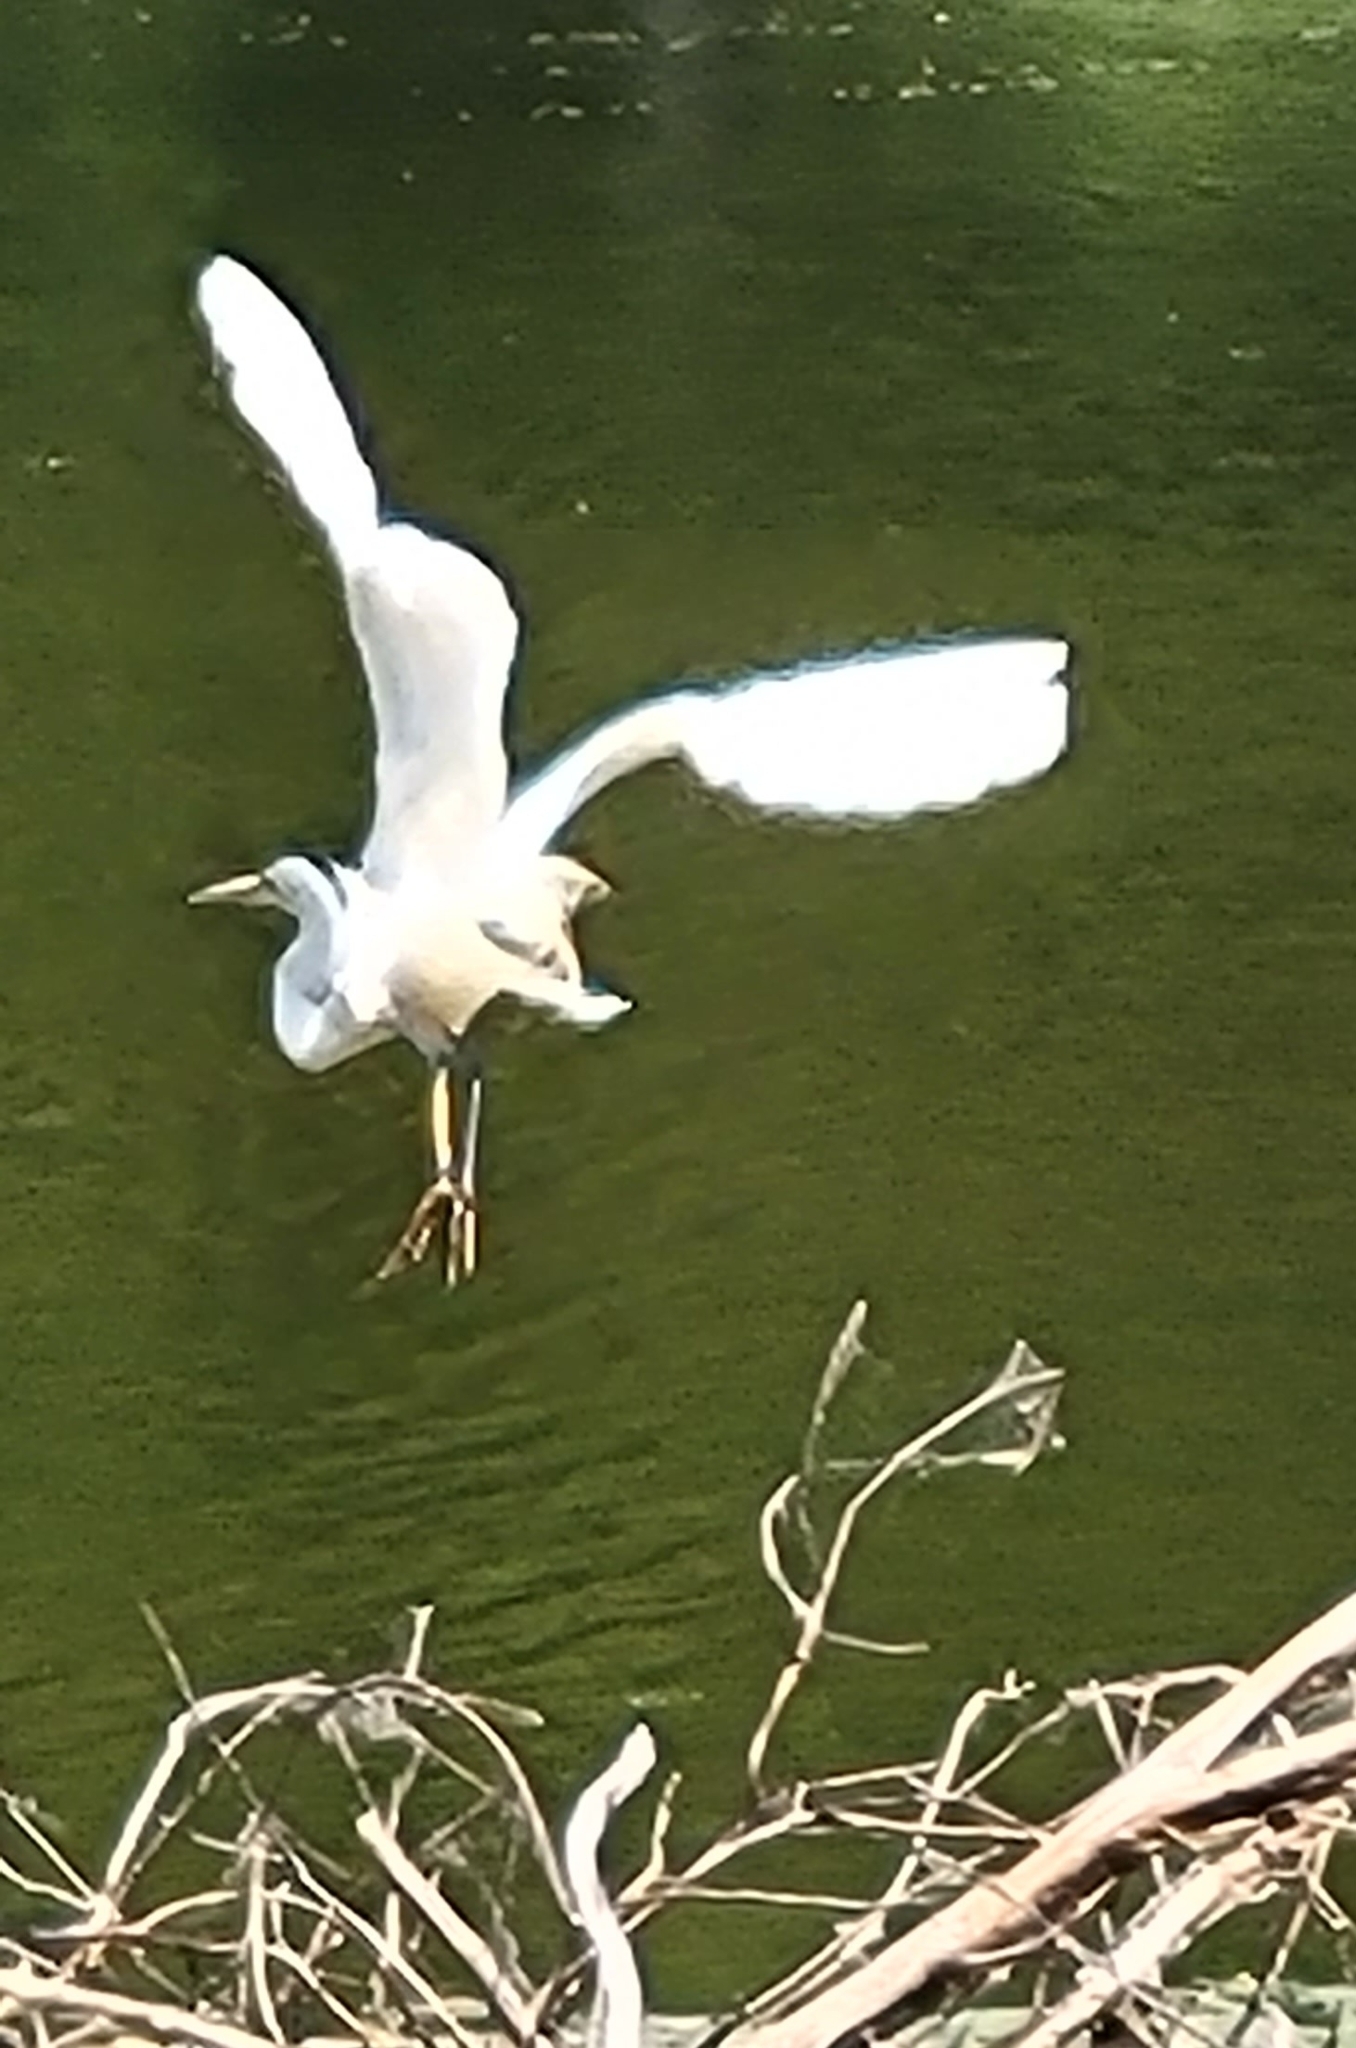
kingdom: Animalia
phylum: Chordata
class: Aves
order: Pelecaniformes
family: Ardeidae
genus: Ardea
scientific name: Ardea alba
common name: Great egret
